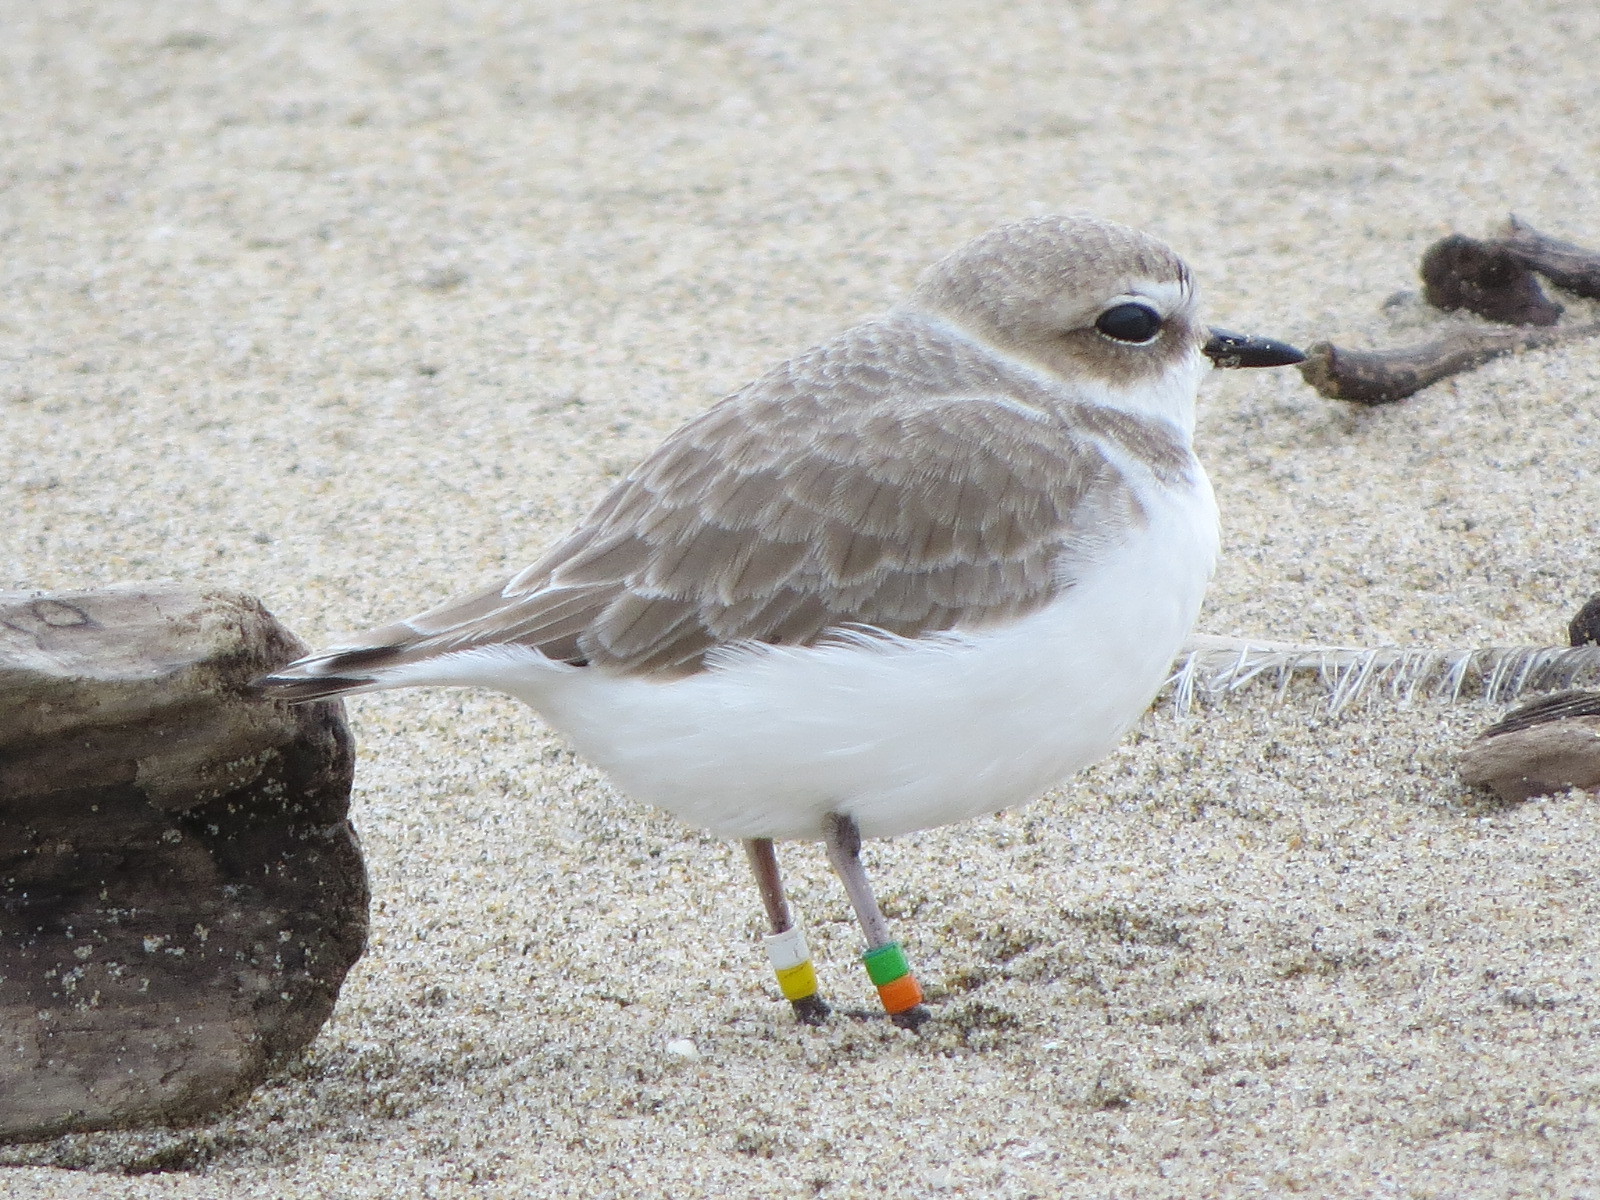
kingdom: Animalia
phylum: Chordata
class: Aves
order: Charadriiformes
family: Charadriidae
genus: Anarhynchus
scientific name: Anarhynchus
